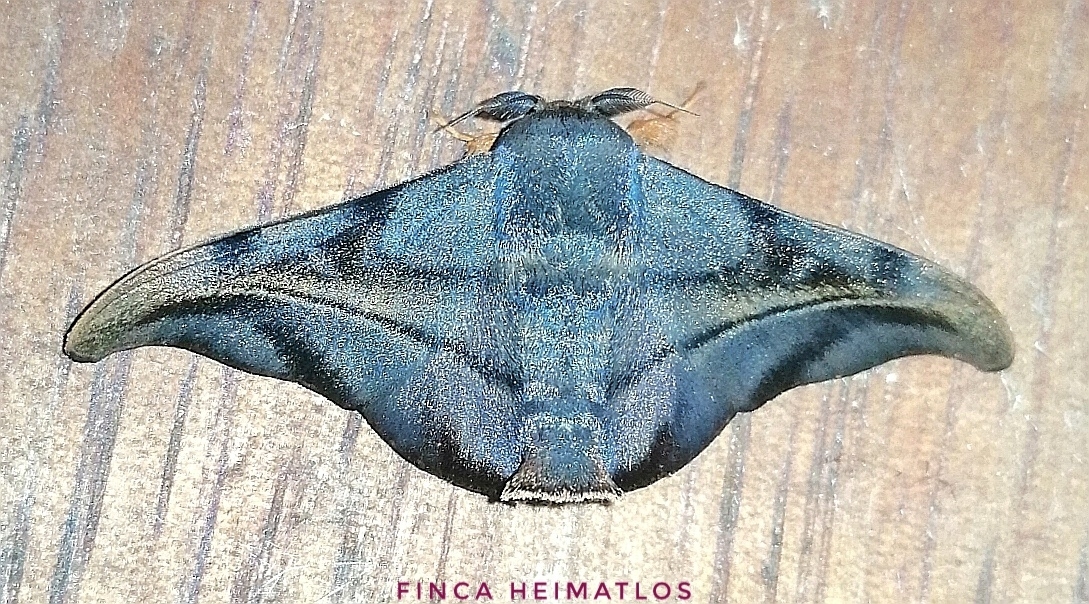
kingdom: Animalia
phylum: Arthropoda
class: Insecta
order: Lepidoptera
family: Mimallonidae
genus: Thaelia
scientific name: Thaelia subrubiginosa
